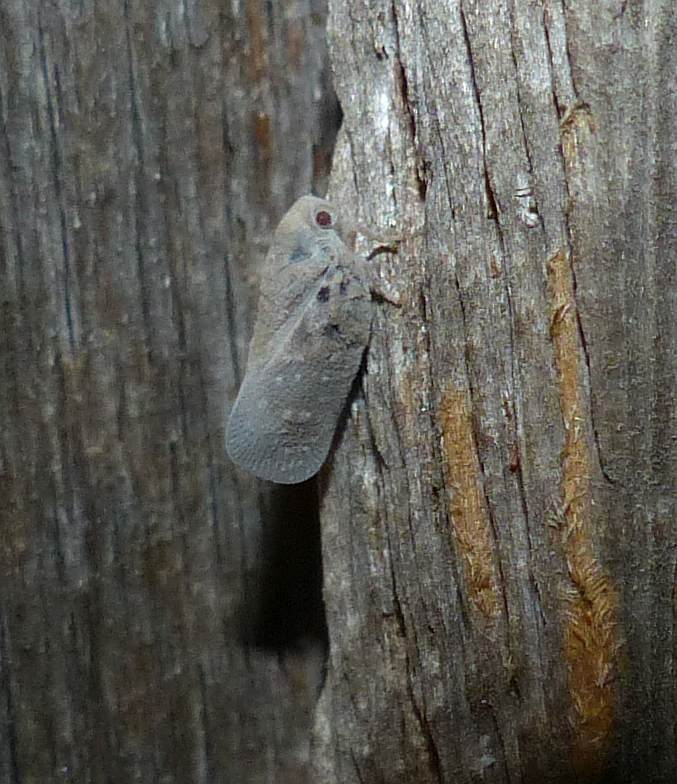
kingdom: Animalia
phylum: Arthropoda
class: Insecta
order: Hemiptera
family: Flatidae
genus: Metcalfa
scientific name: Metcalfa pruinosa
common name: Citrus flatid planthopper
